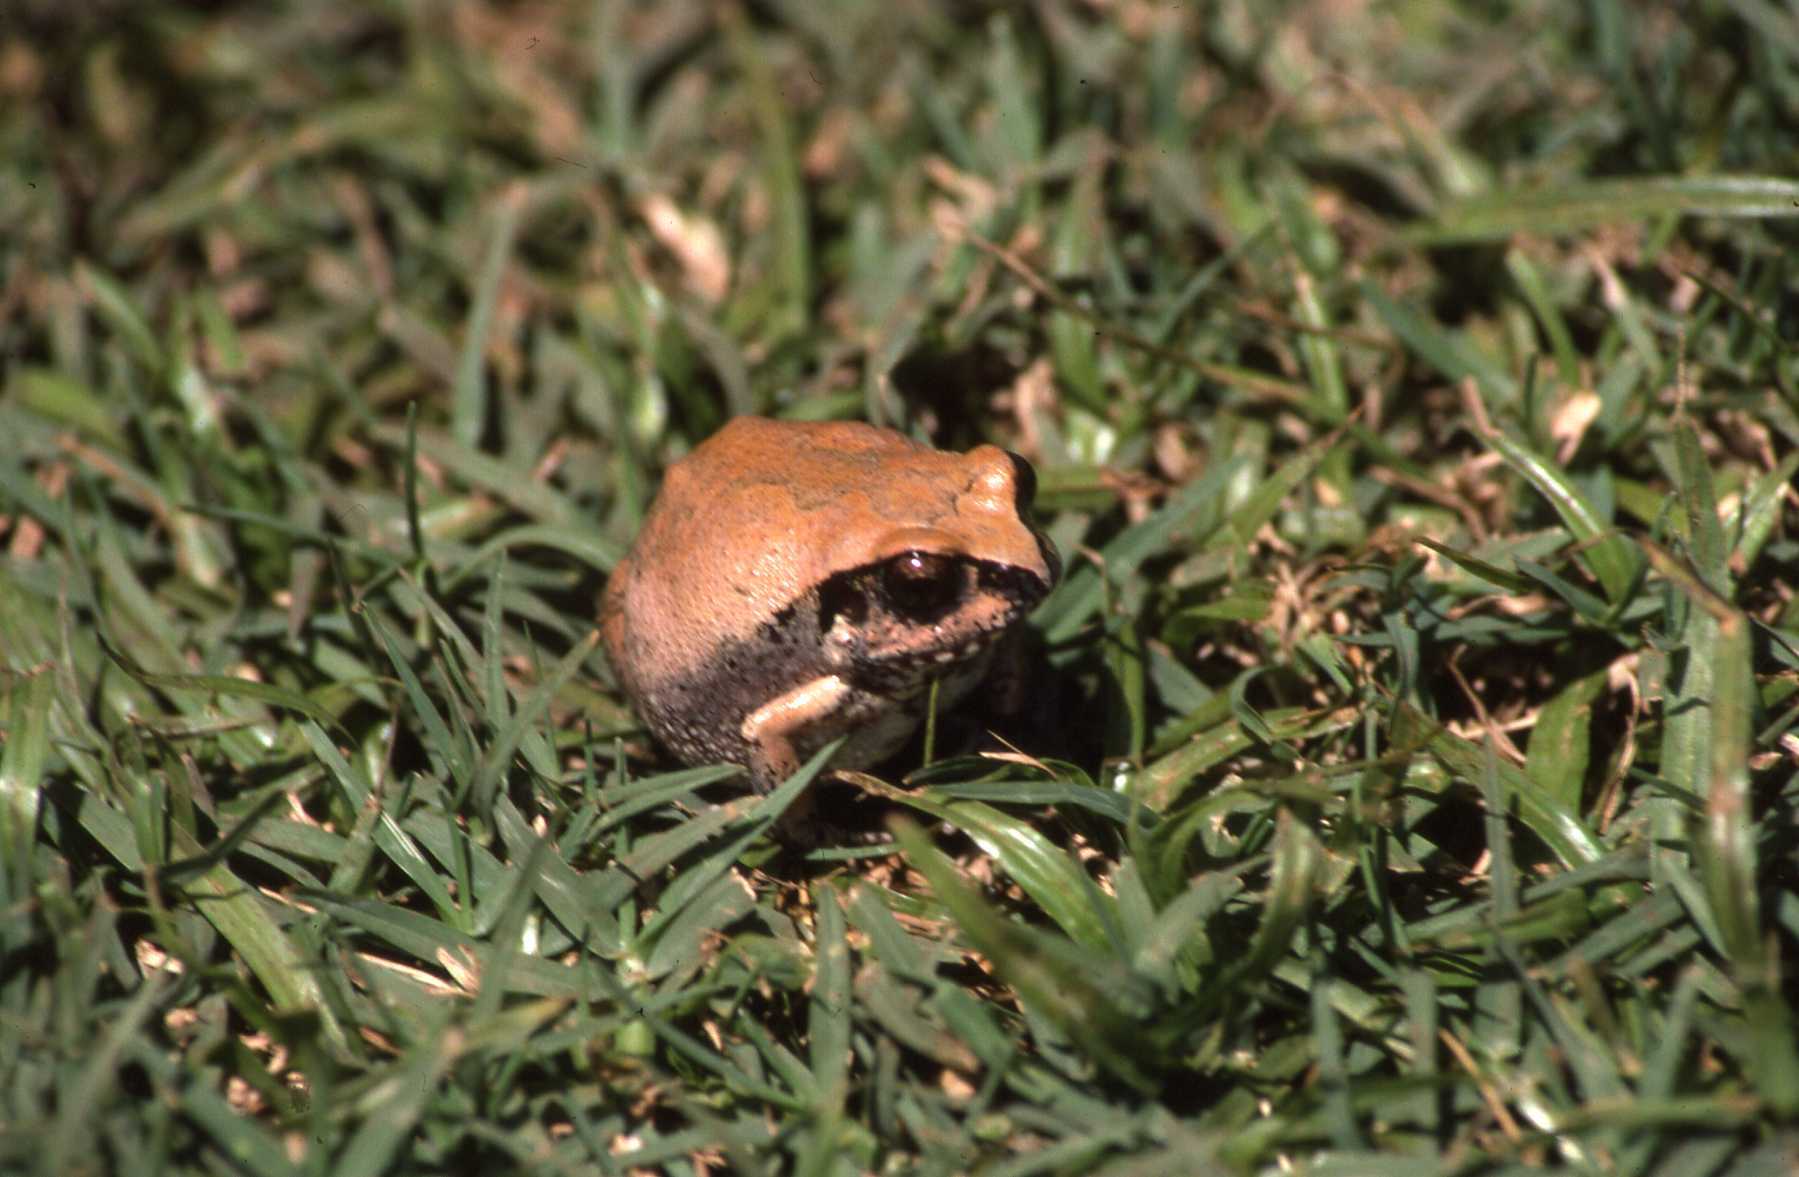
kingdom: Animalia
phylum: Chordata
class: Amphibia
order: Anura
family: Arthroleptidae
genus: Arthroleptis
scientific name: Arthroleptis stenodactylus
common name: Dune squeaker
